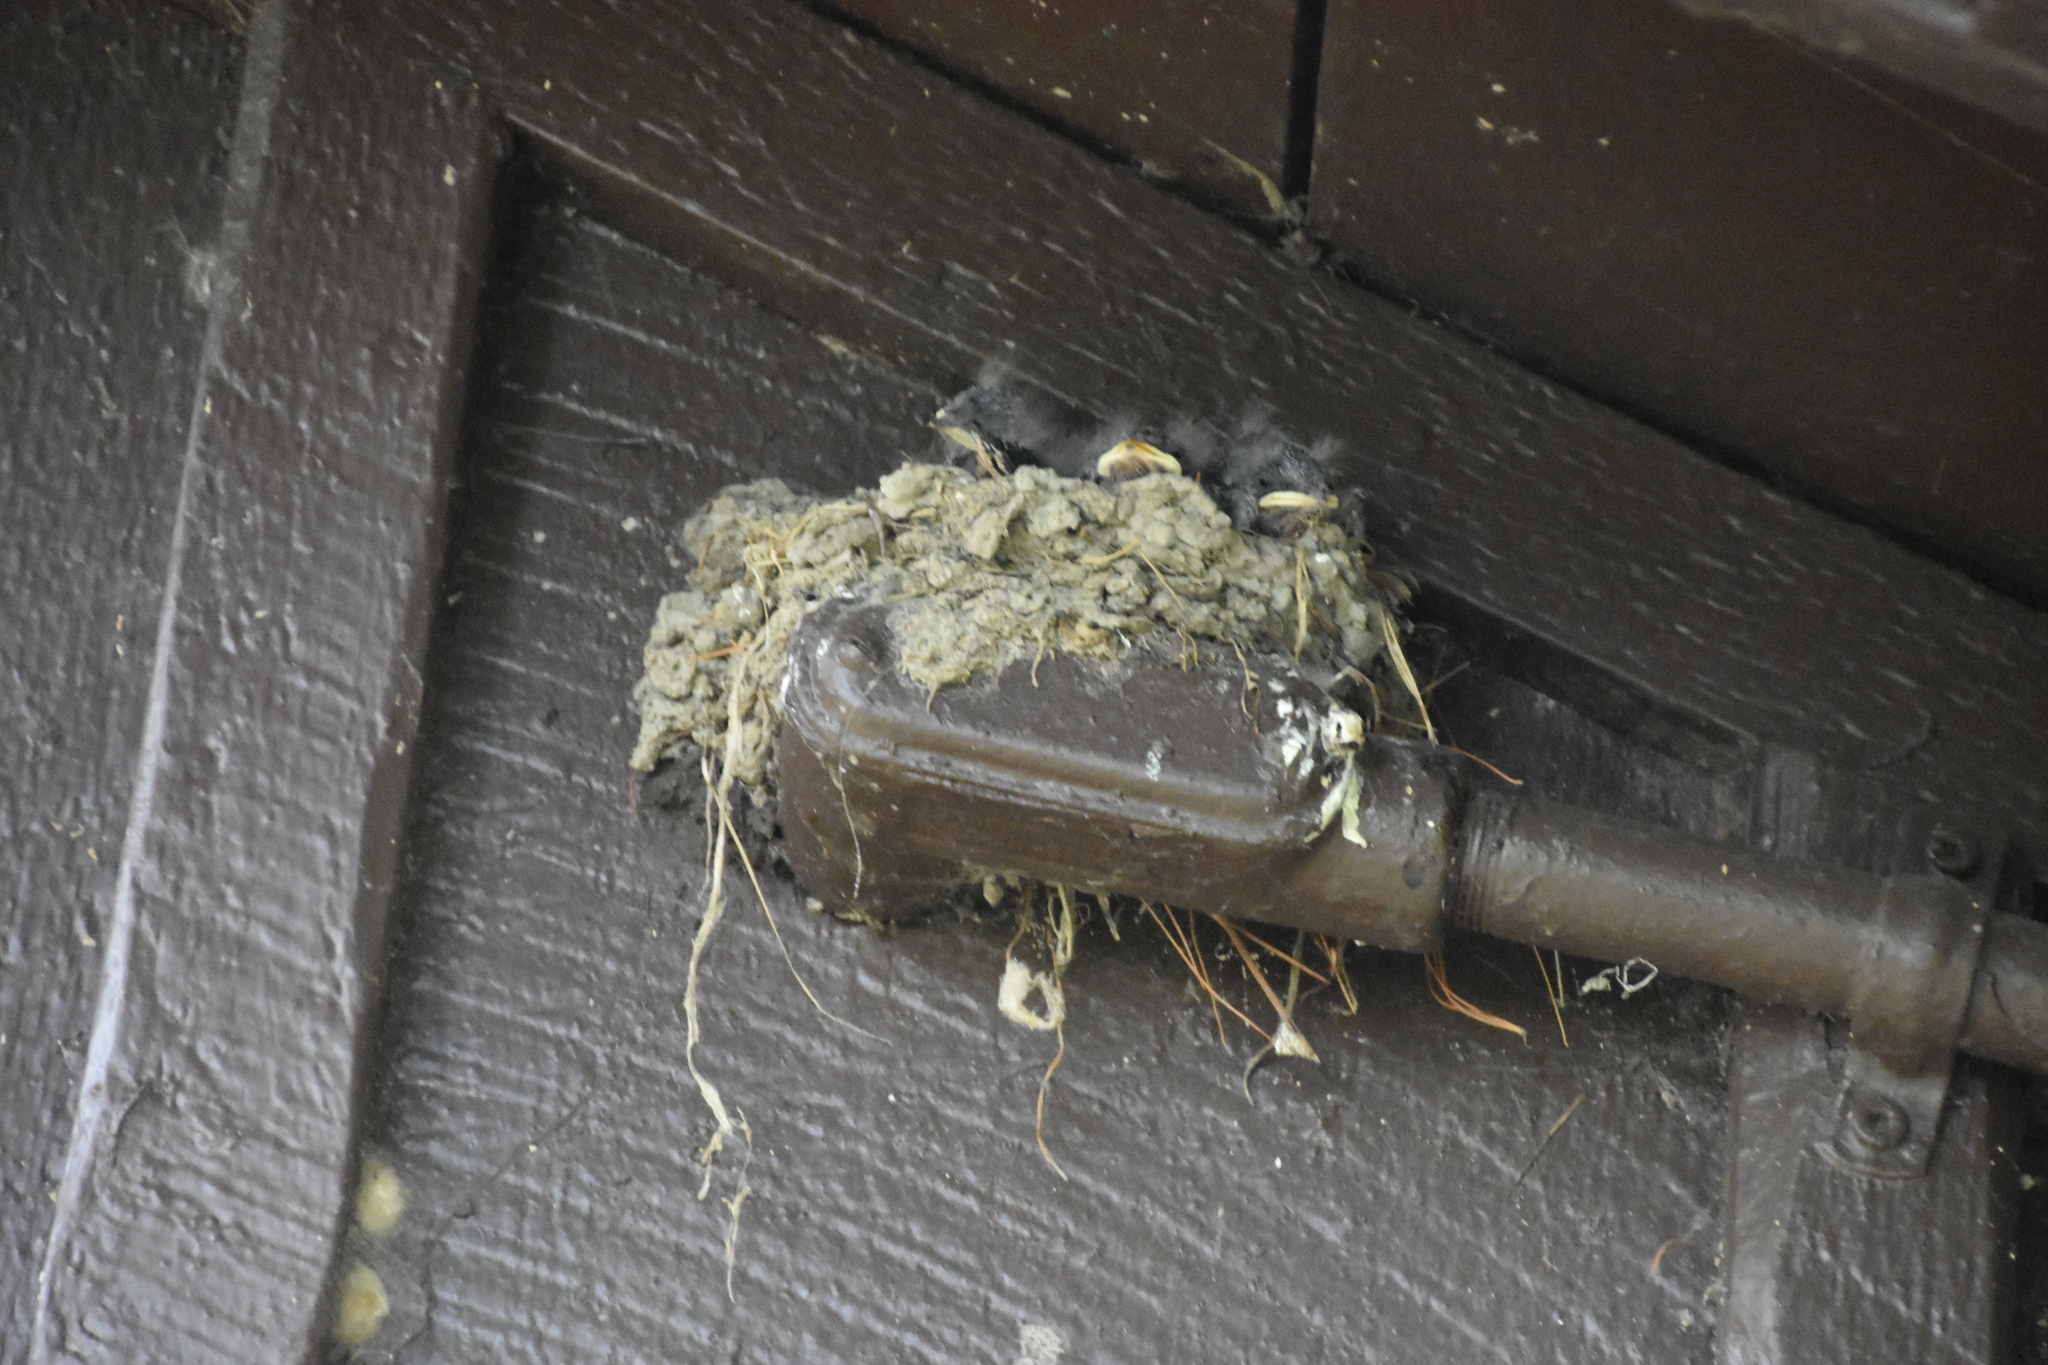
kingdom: Animalia
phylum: Chordata
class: Aves
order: Passeriformes
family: Hirundinidae
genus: Hirundo
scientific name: Hirundo rustica
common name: Barn swallow
